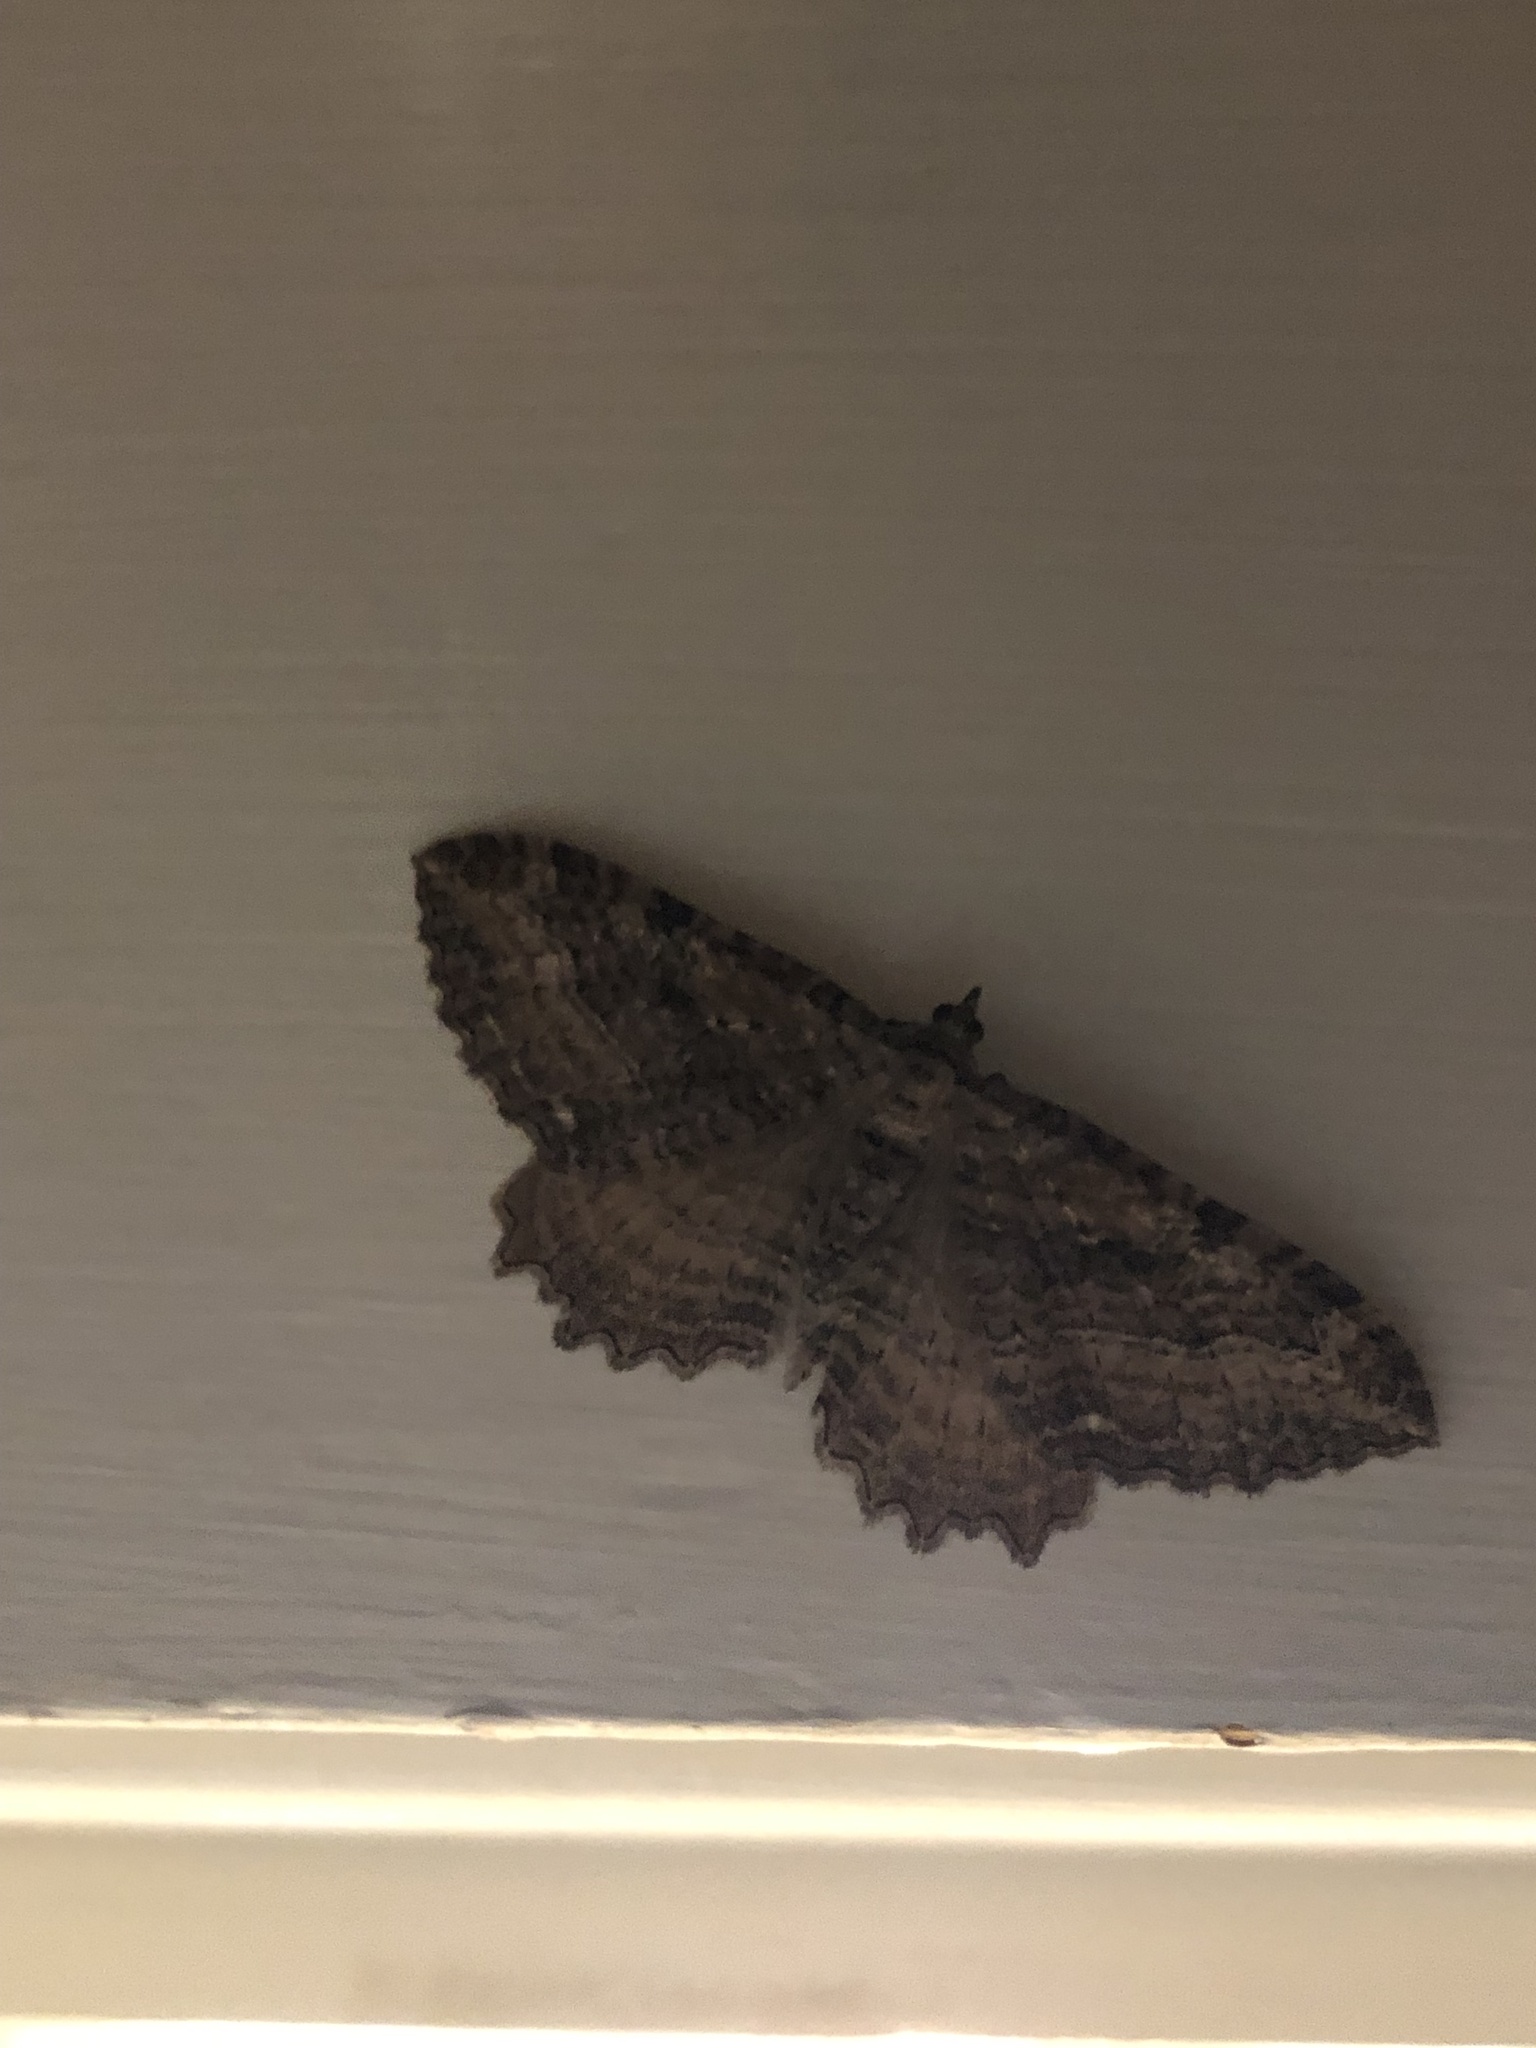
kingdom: Animalia
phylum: Arthropoda
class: Insecta
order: Lepidoptera
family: Geometridae
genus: Rheumaptera
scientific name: Rheumaptera
